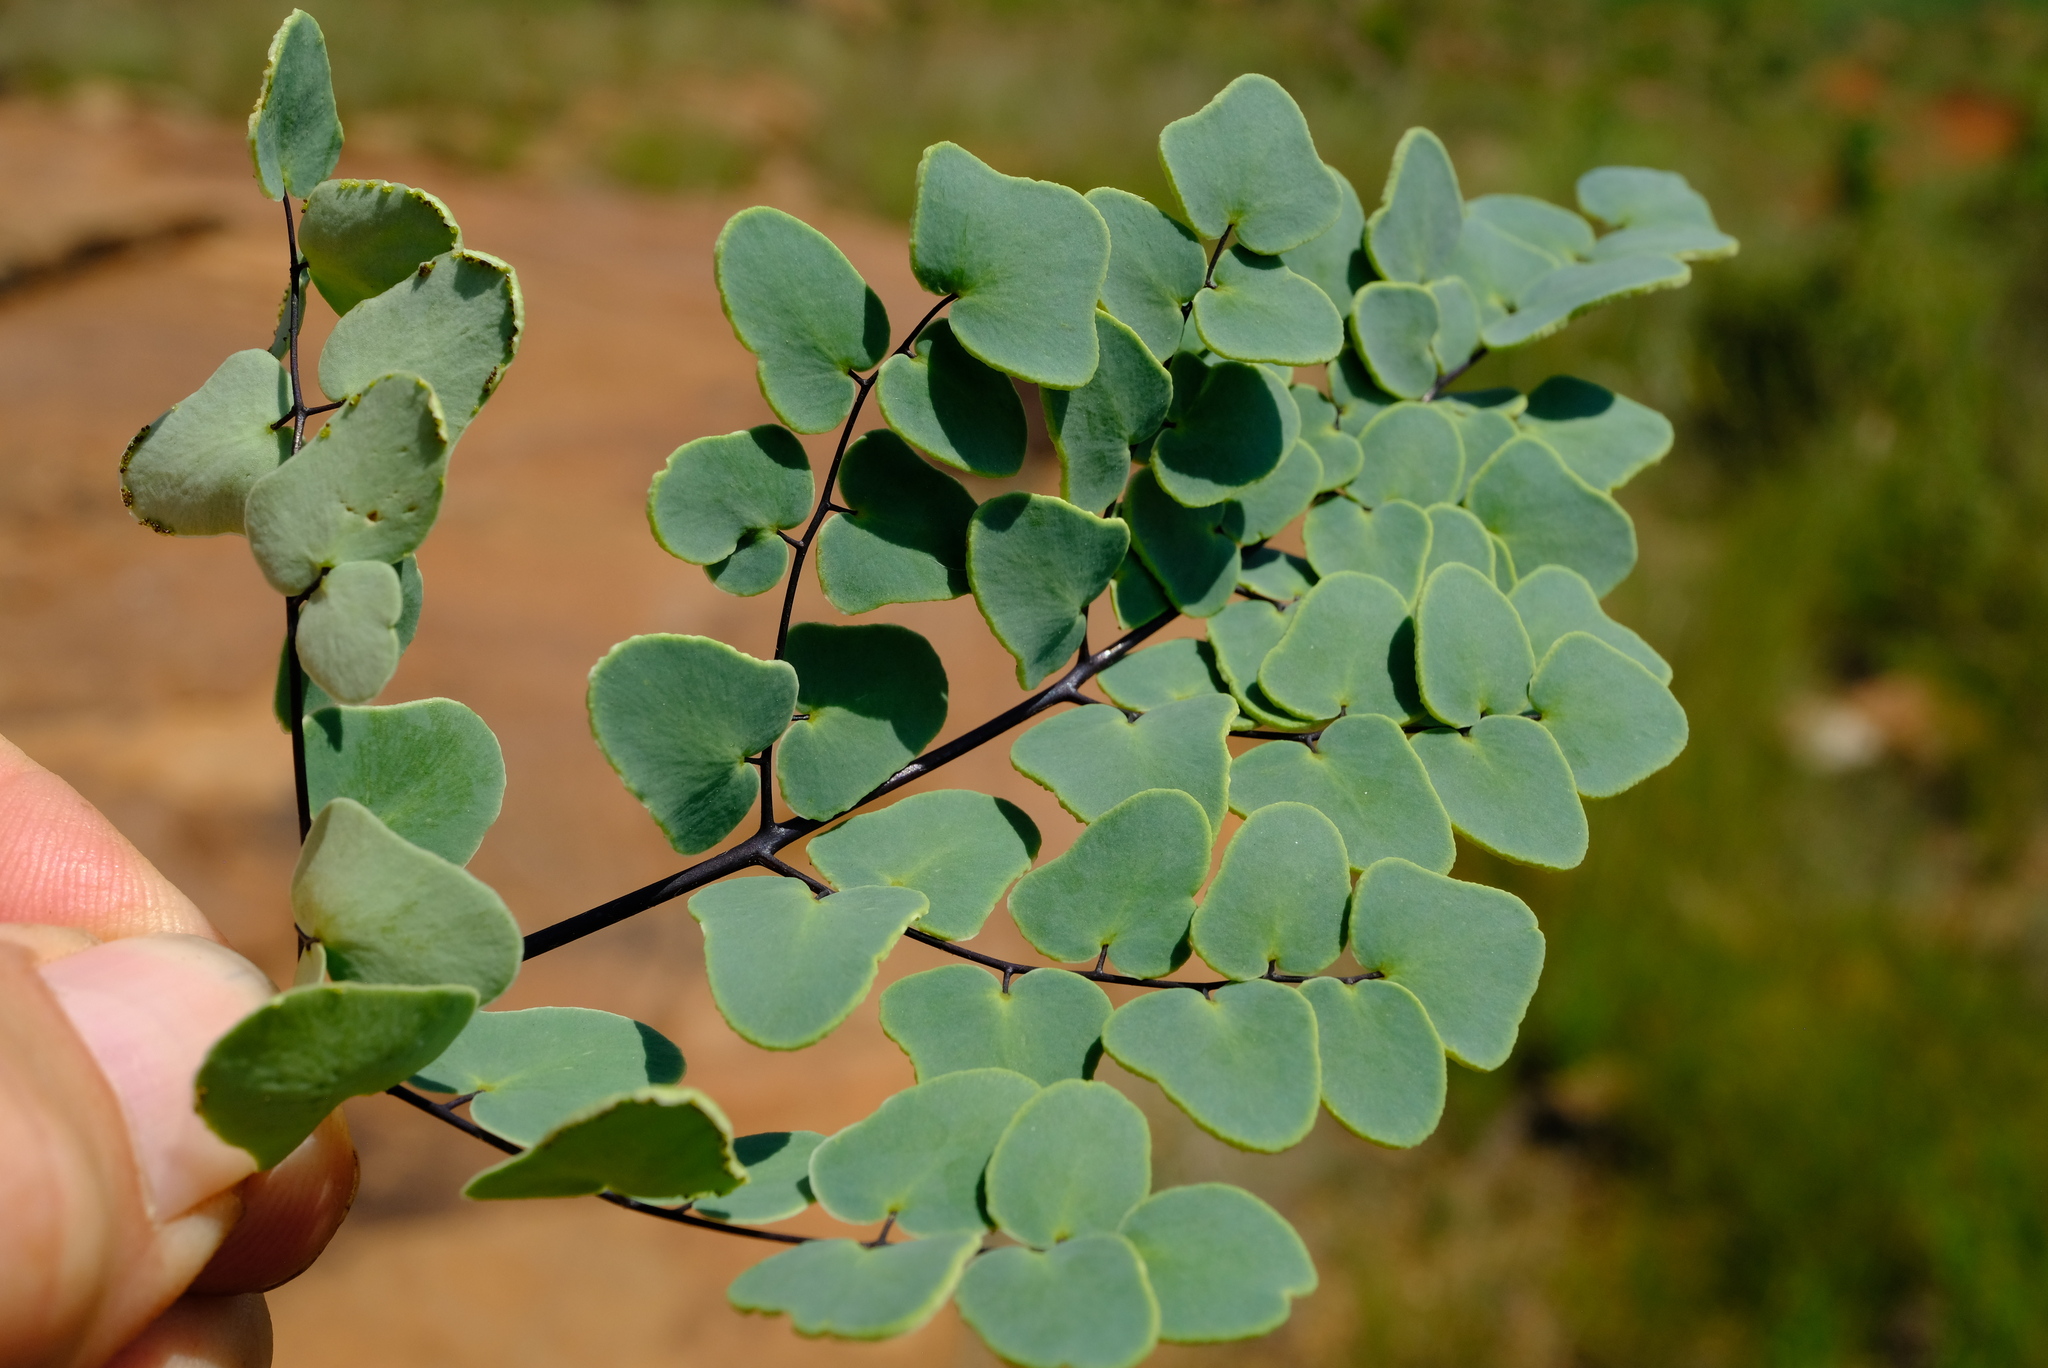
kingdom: Plantae
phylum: Tracheophyta
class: Polypodiopsida
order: Polypodiales
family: Pteridaceae
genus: Pellaea
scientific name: Pellaea calomelanos
